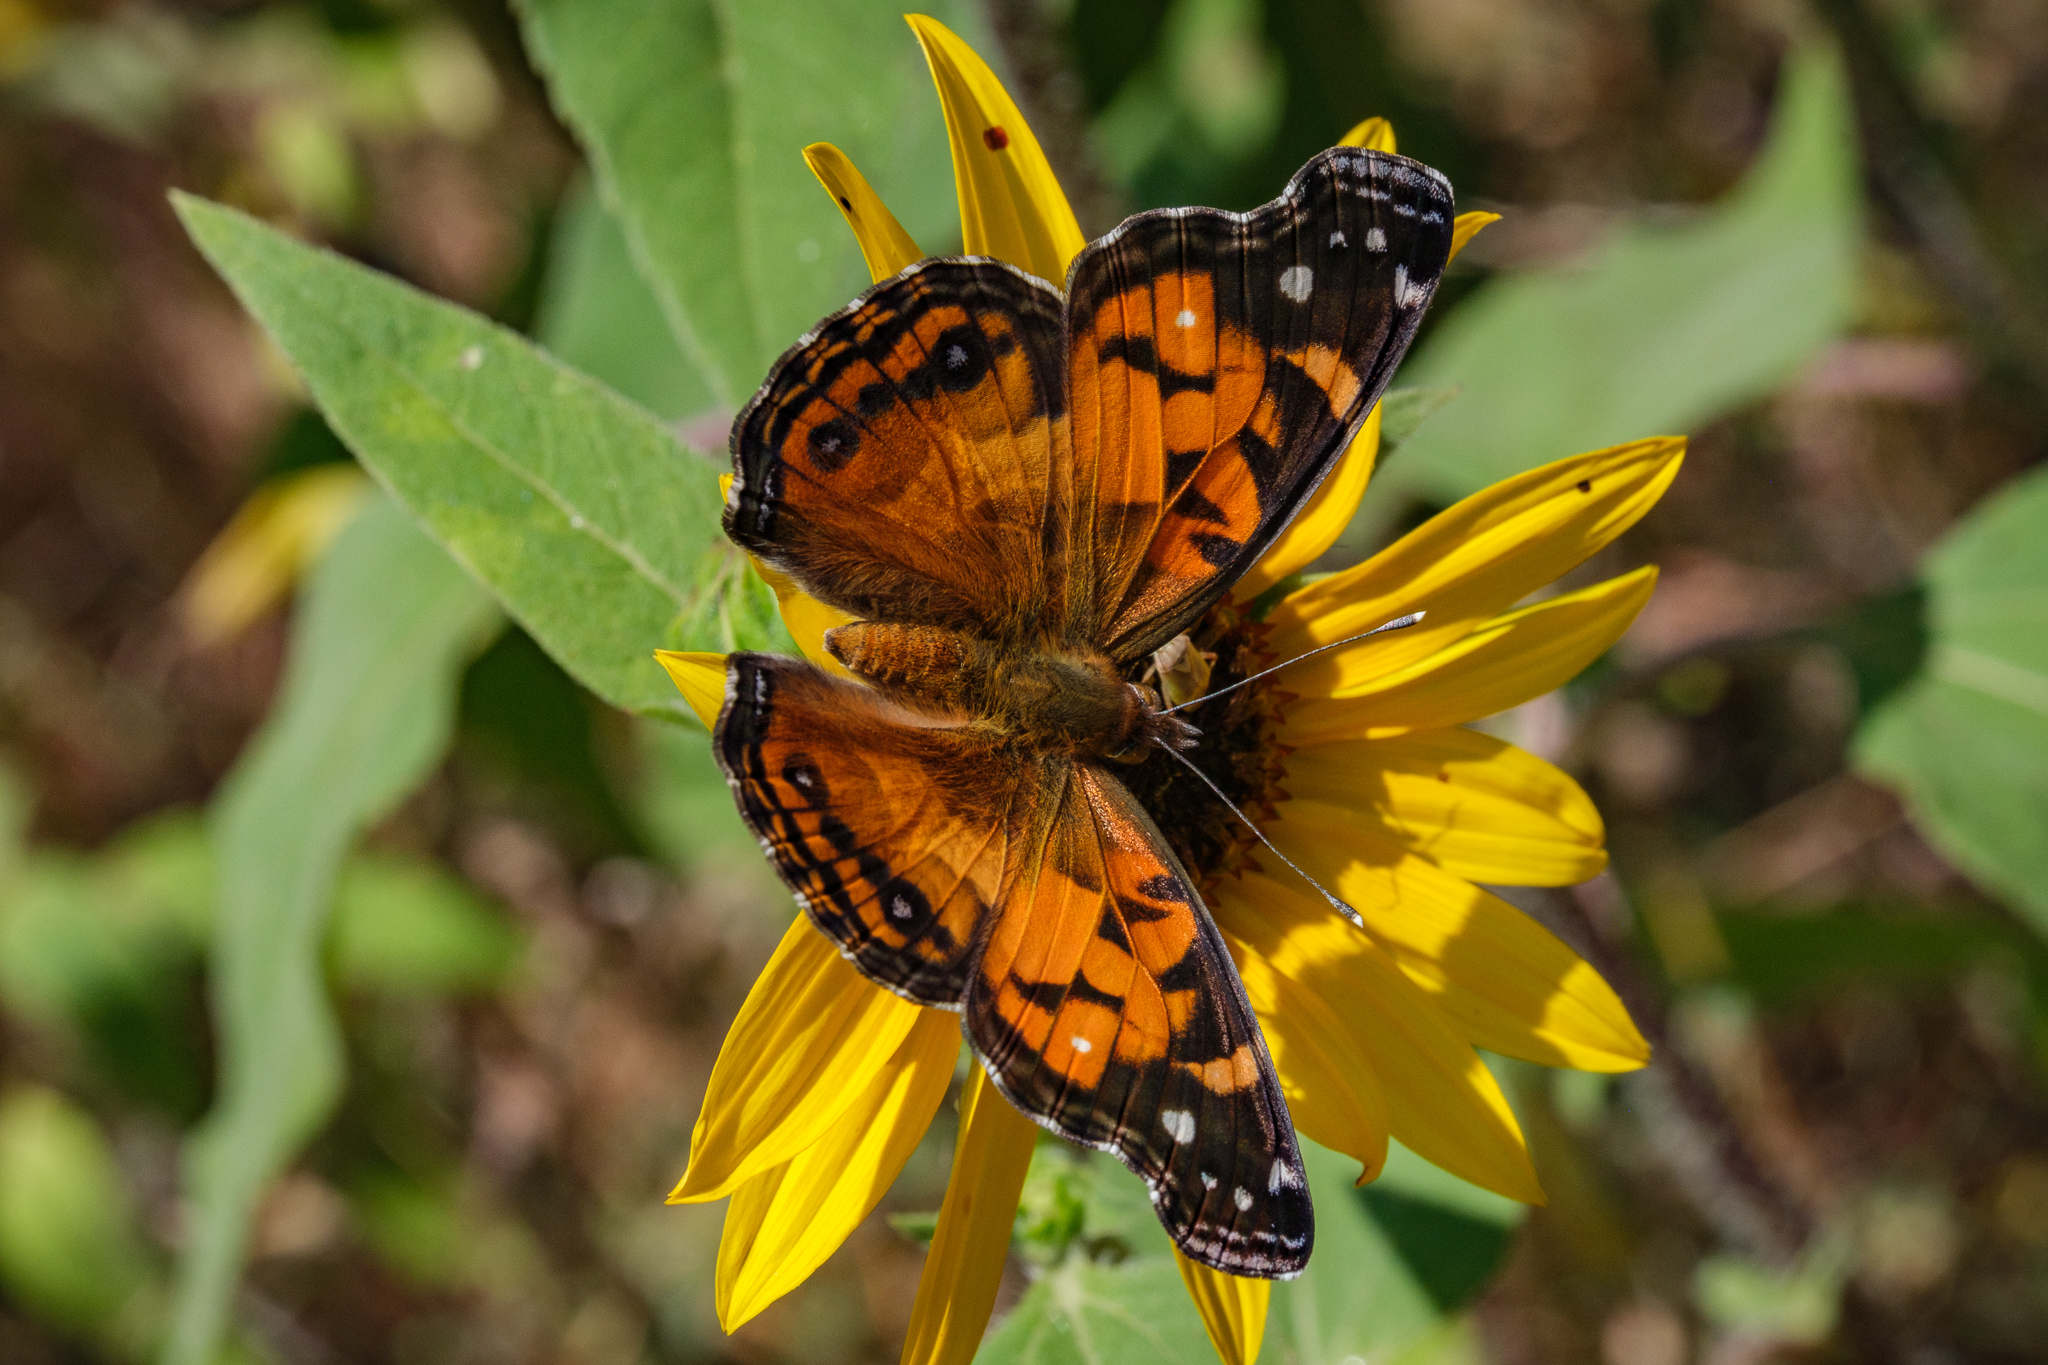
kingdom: Animalia
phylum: Arthropoda
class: Insecta
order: Lepidoptera
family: Nymphalidae
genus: Vanessa
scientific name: Vanessa virginiensis
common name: American lady
